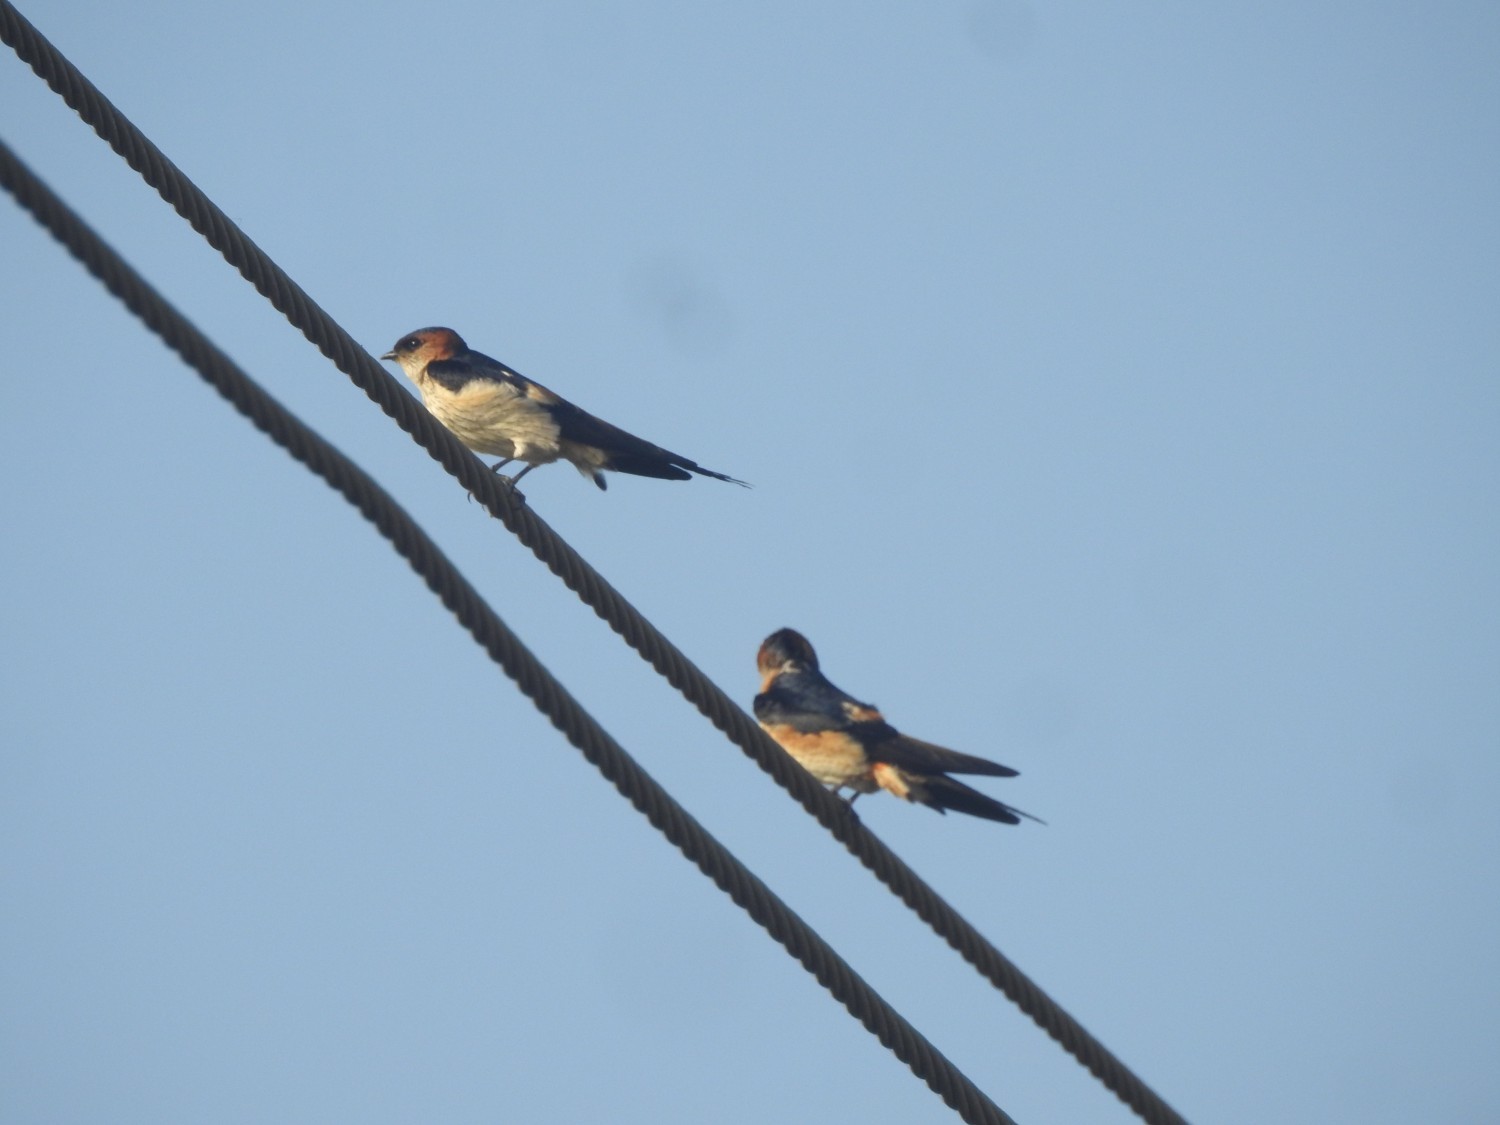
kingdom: Animalia
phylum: Chordata
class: Aves
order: Passeriformes
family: Hirundinidae
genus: Cecropis
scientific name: Cecropis daurica
